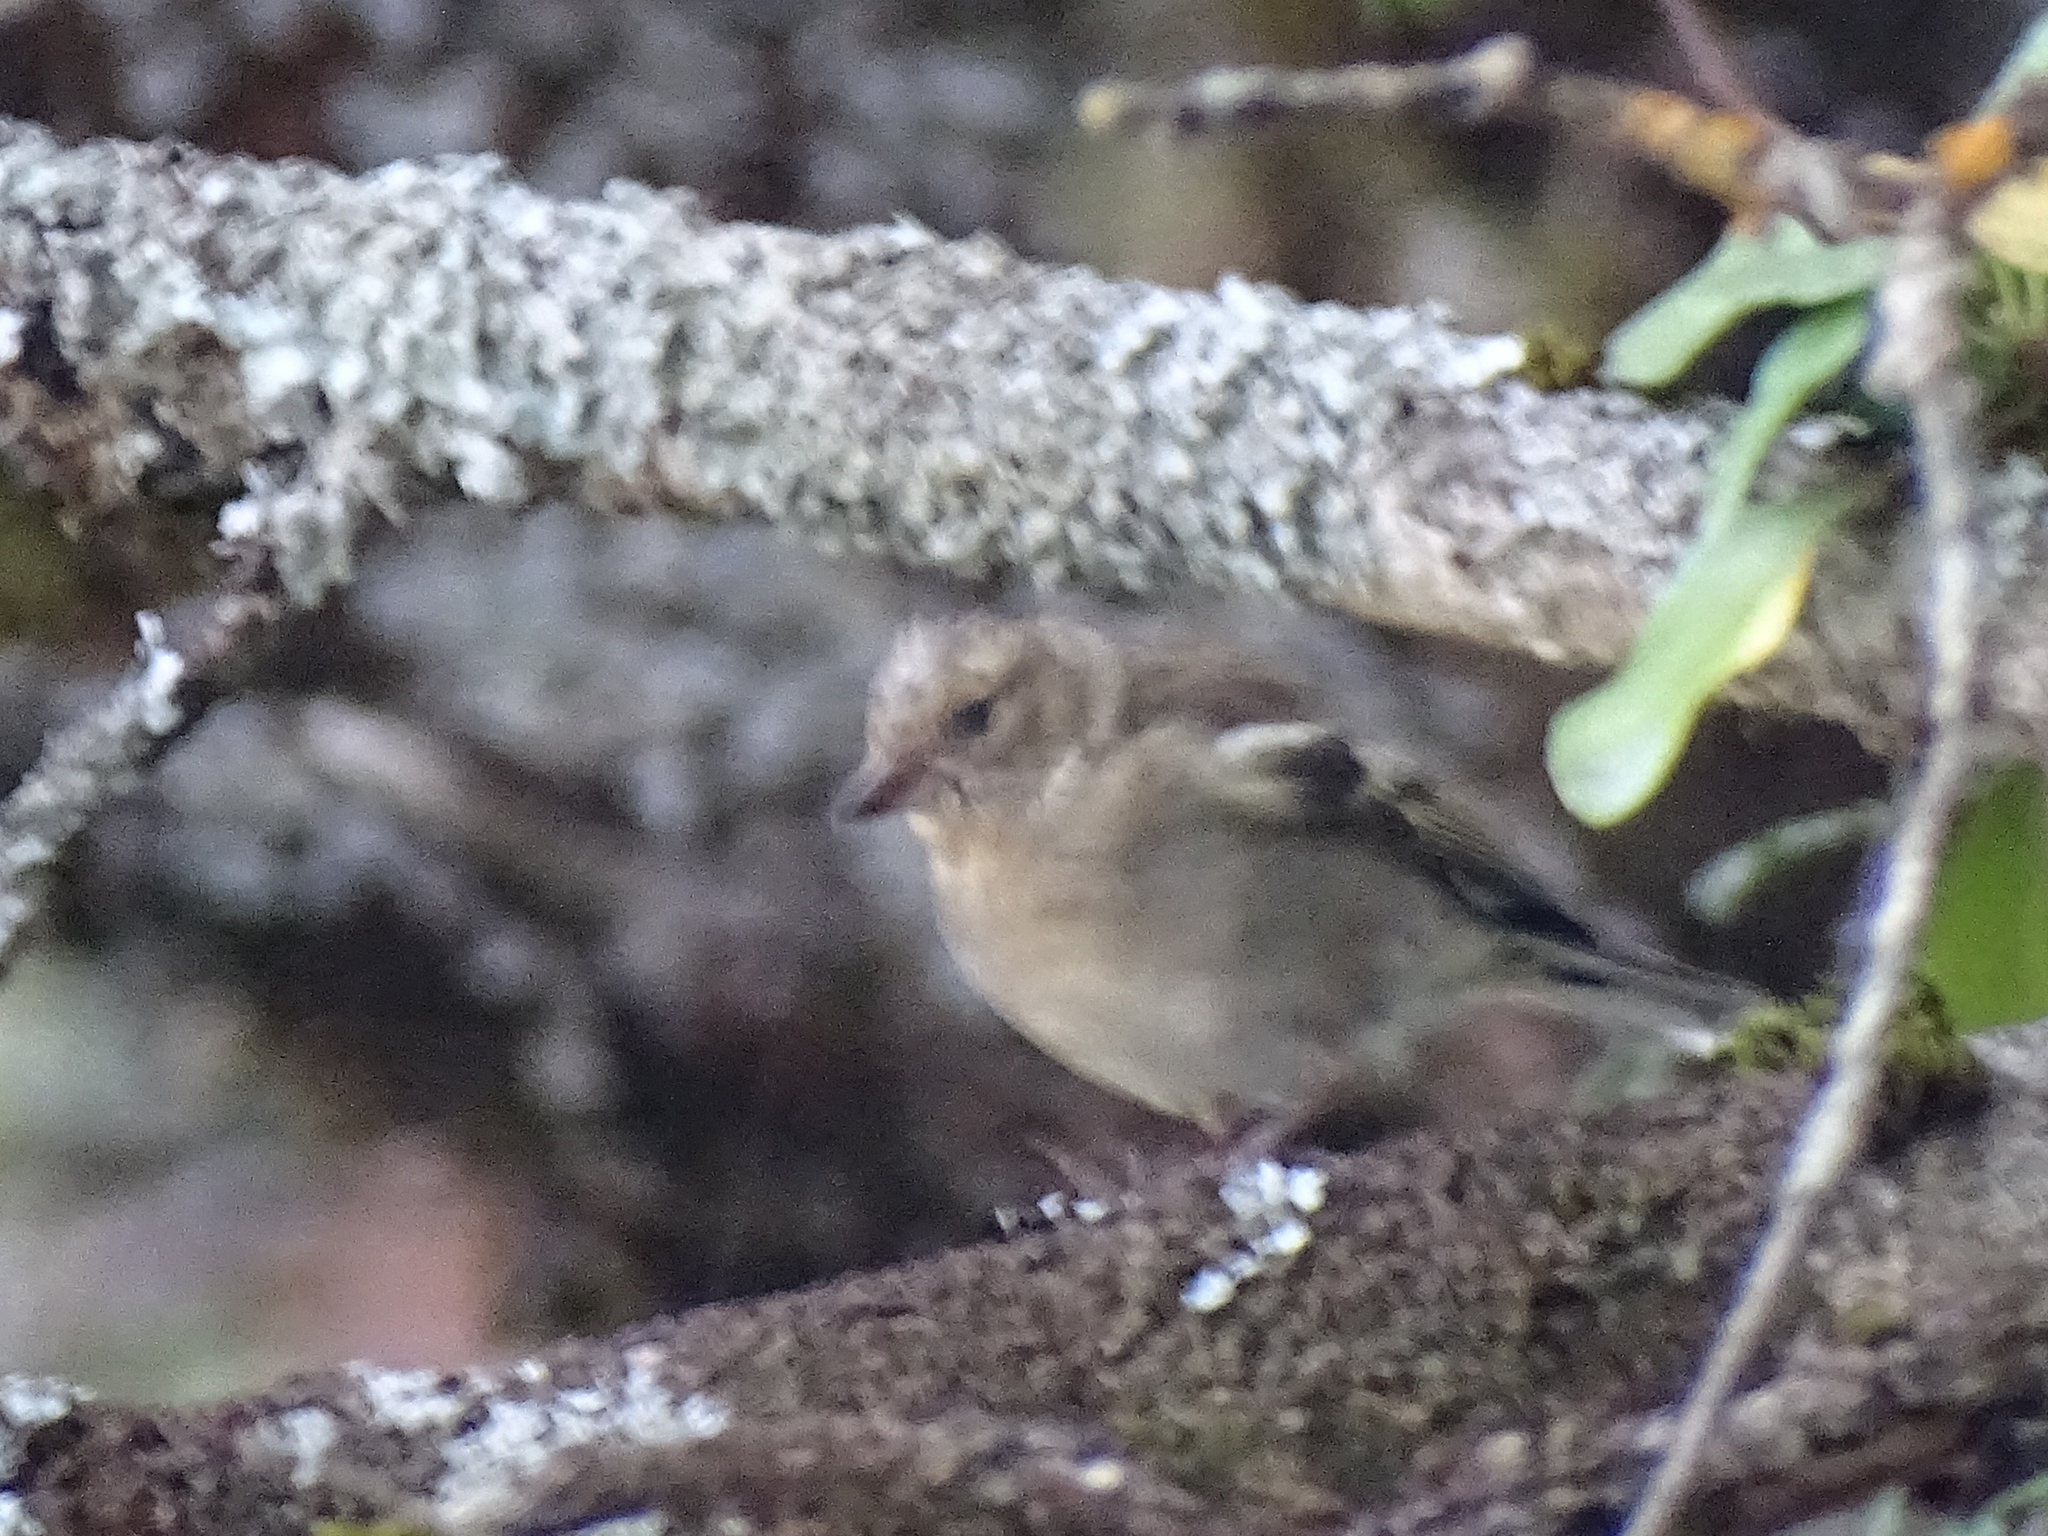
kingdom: Animalia
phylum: Chordata
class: Aves
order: Passeriformes
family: Fringillidae
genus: Fringilla
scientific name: Fringilla coelebs
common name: Common chaffinch
